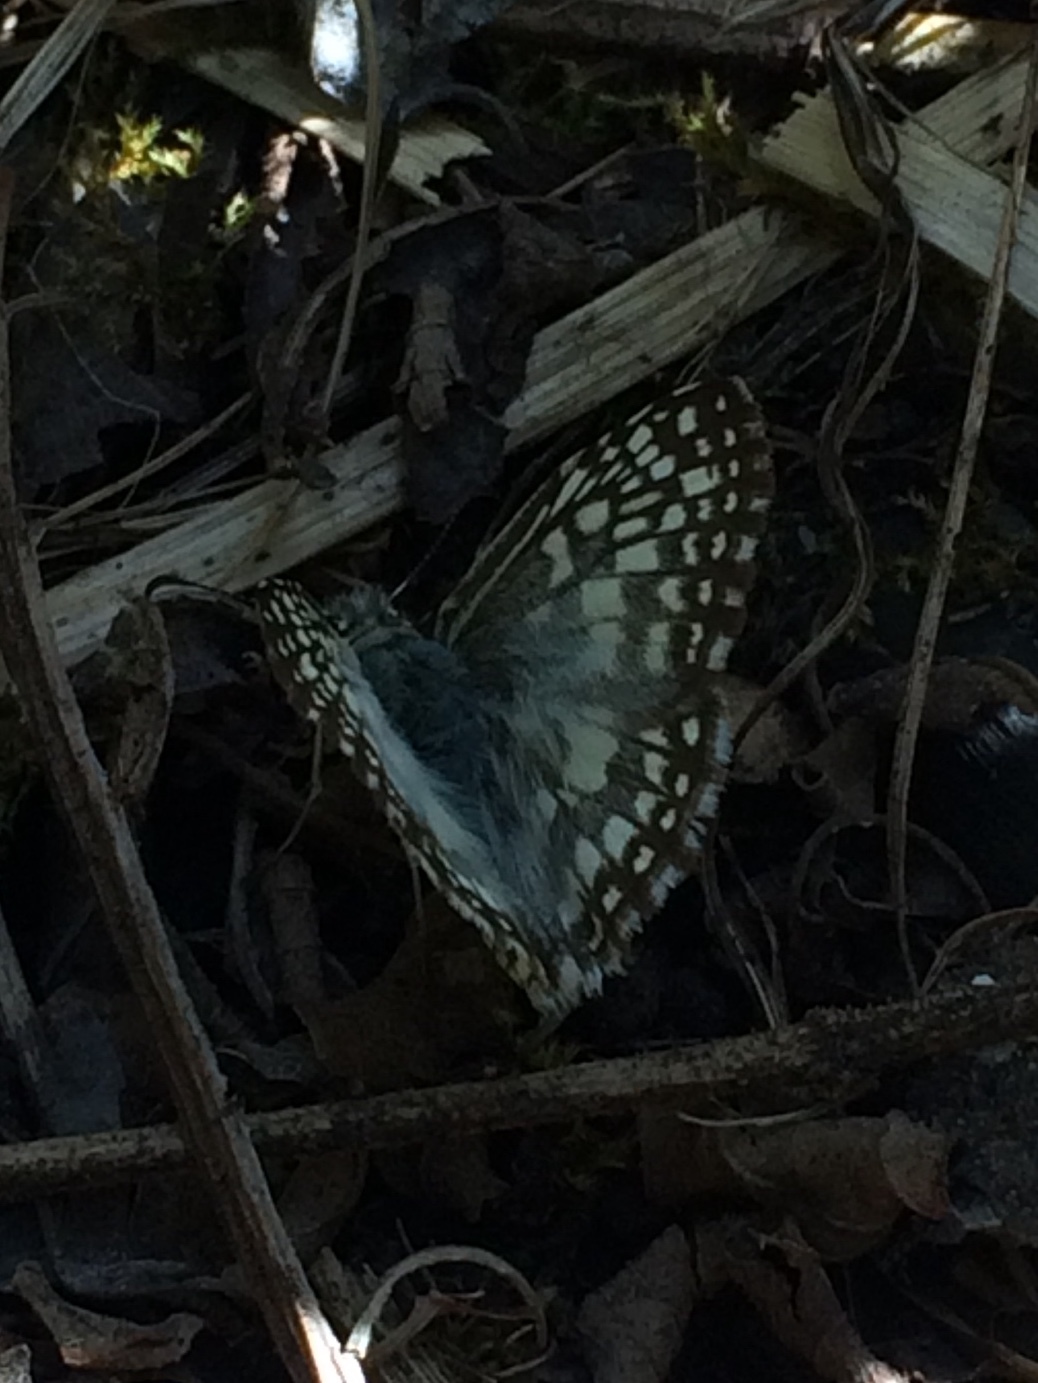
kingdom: Animalia
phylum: Arthropoda
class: Insecta
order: Lepidoptera
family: Hesperiidae
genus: Pyrgus
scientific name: Pyrgus oileus
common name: Tropical checkered-skipper
